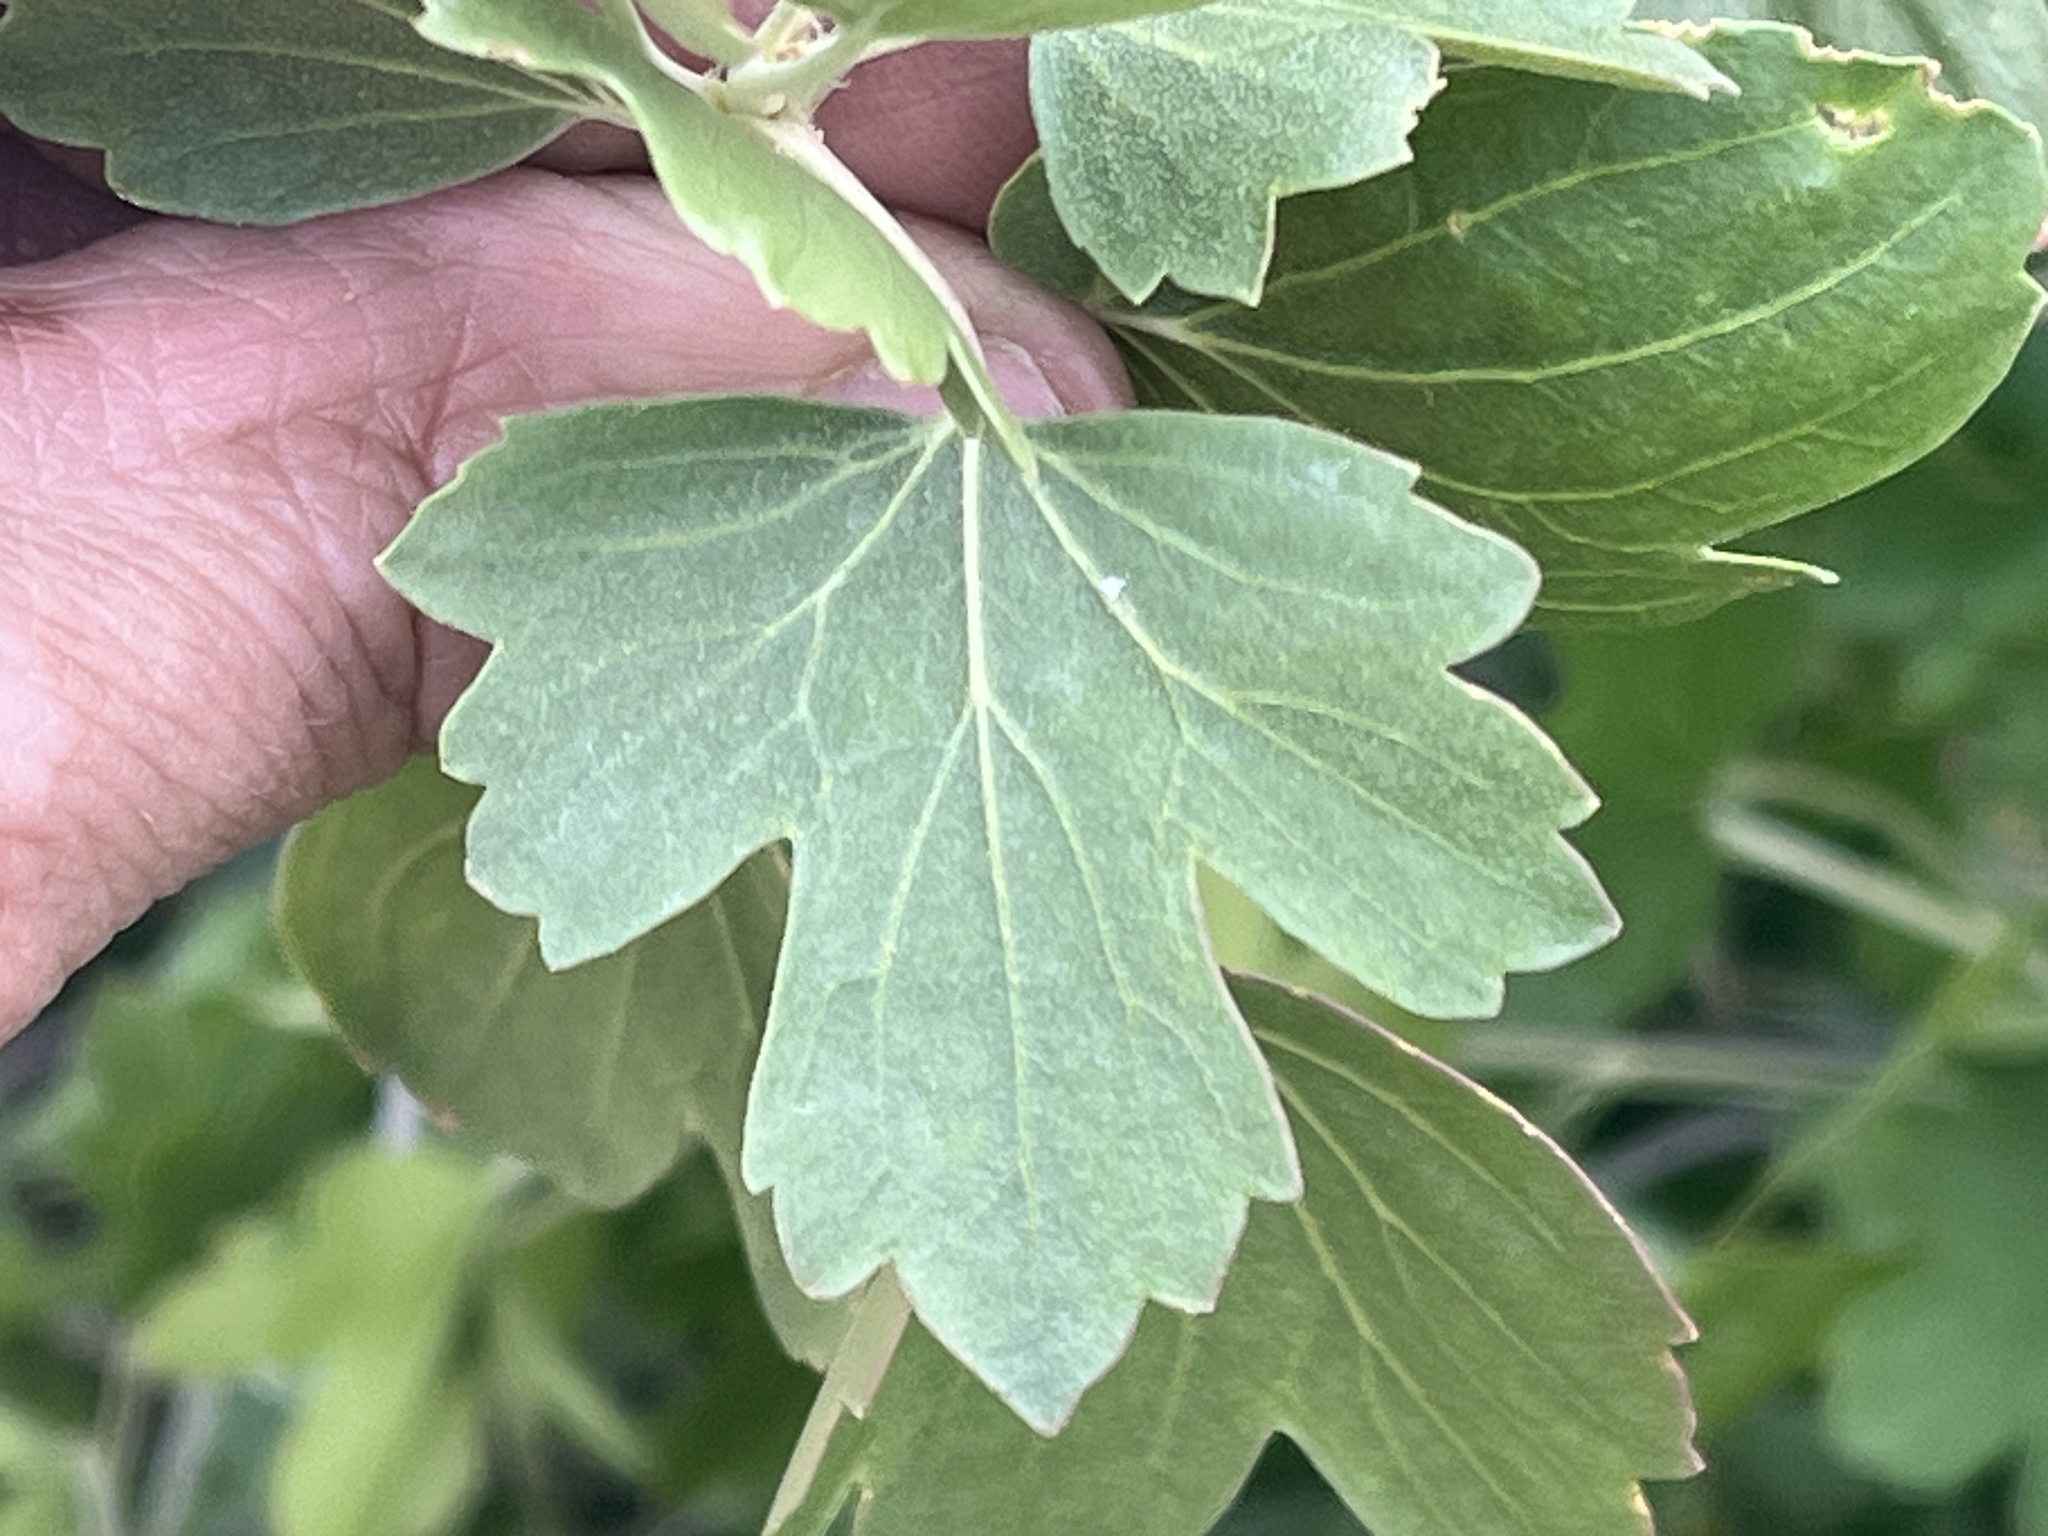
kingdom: Plantae
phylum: Tracheophyta
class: Magnoliopsida
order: Saxifragales
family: Grossulariaceae
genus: Ribes
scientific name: Ribes aureum
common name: Golden currant
